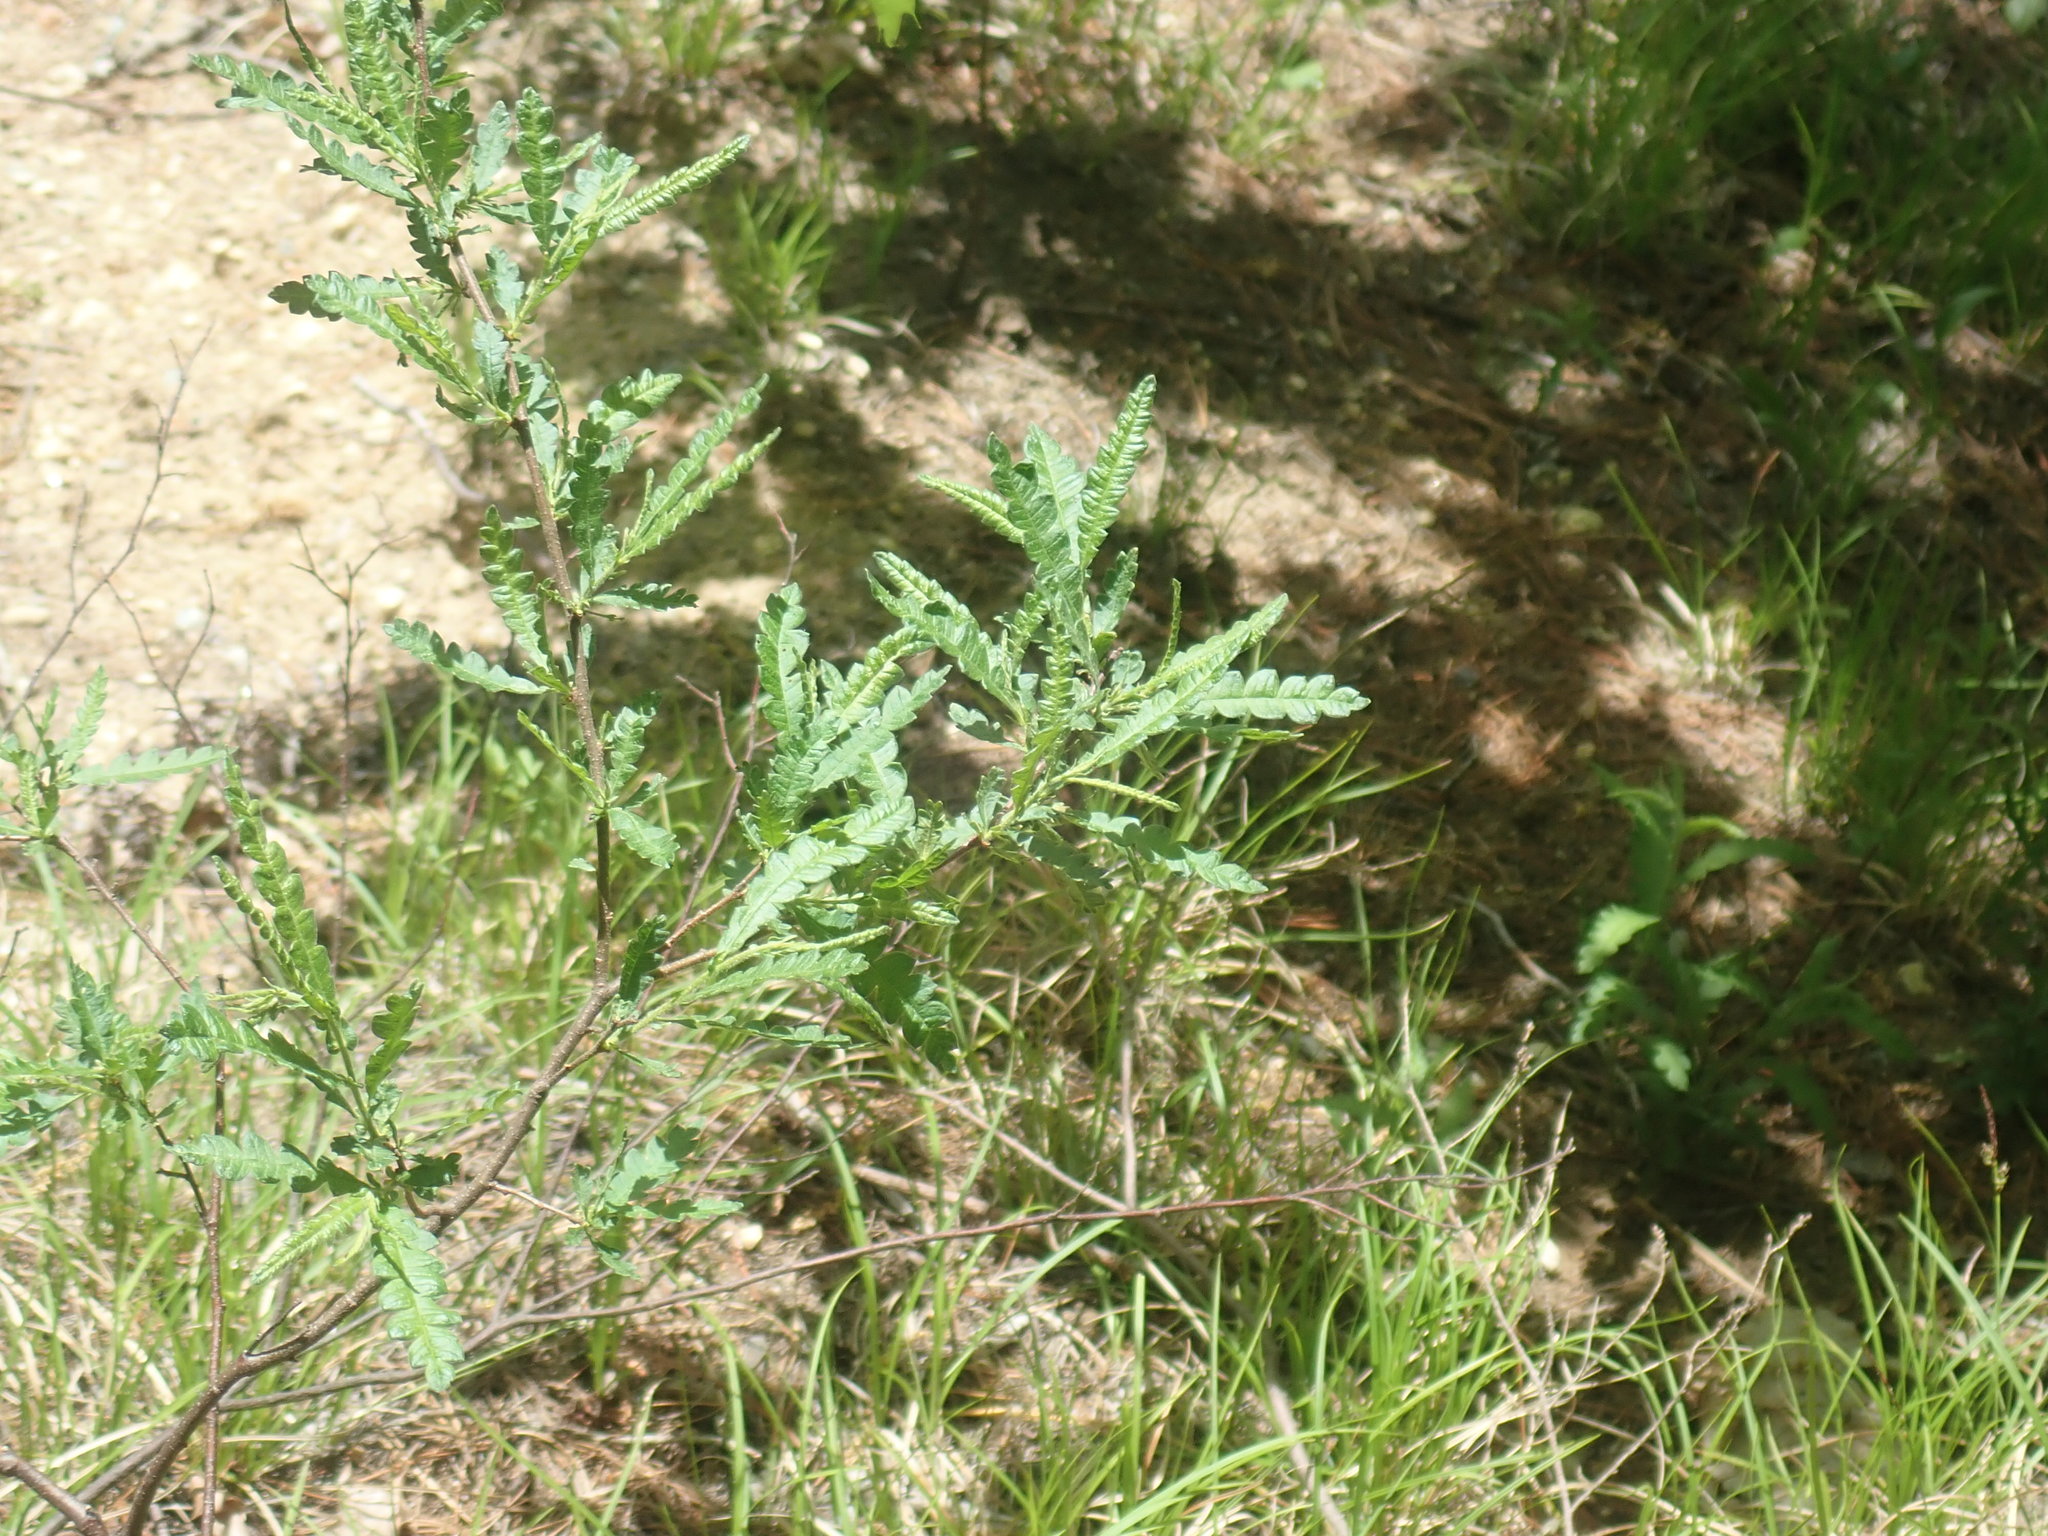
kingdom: Plantae
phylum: Tracheophyta
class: Magnoliopsida
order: Fagales
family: Myricaceae
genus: Comptonia
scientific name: Comptonia peregrina
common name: Sweet-fern
